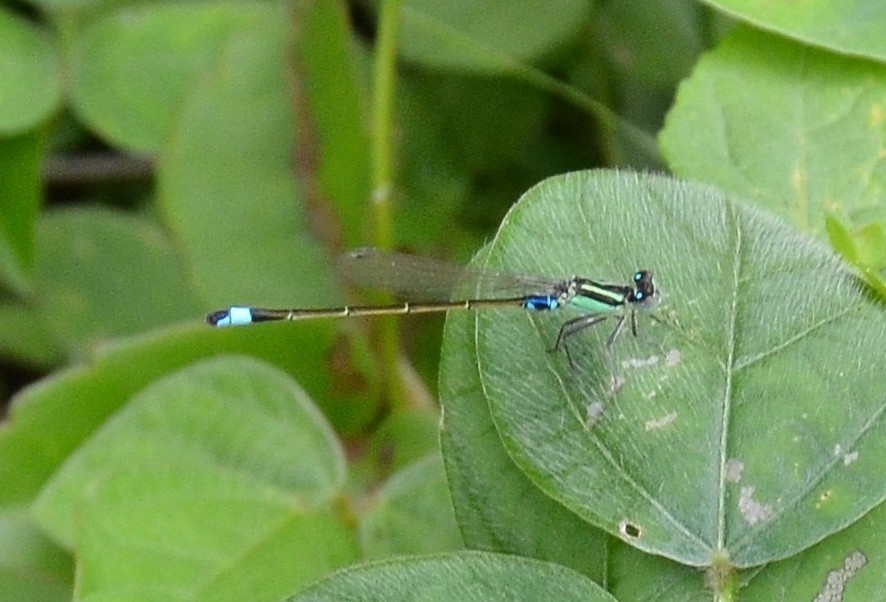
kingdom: Animalia
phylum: Arthropoda
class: Insecta
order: Odonata
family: Coenagrionidae
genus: Ischnura
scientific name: Ischnura senegalensis
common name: Tropical bluetail
